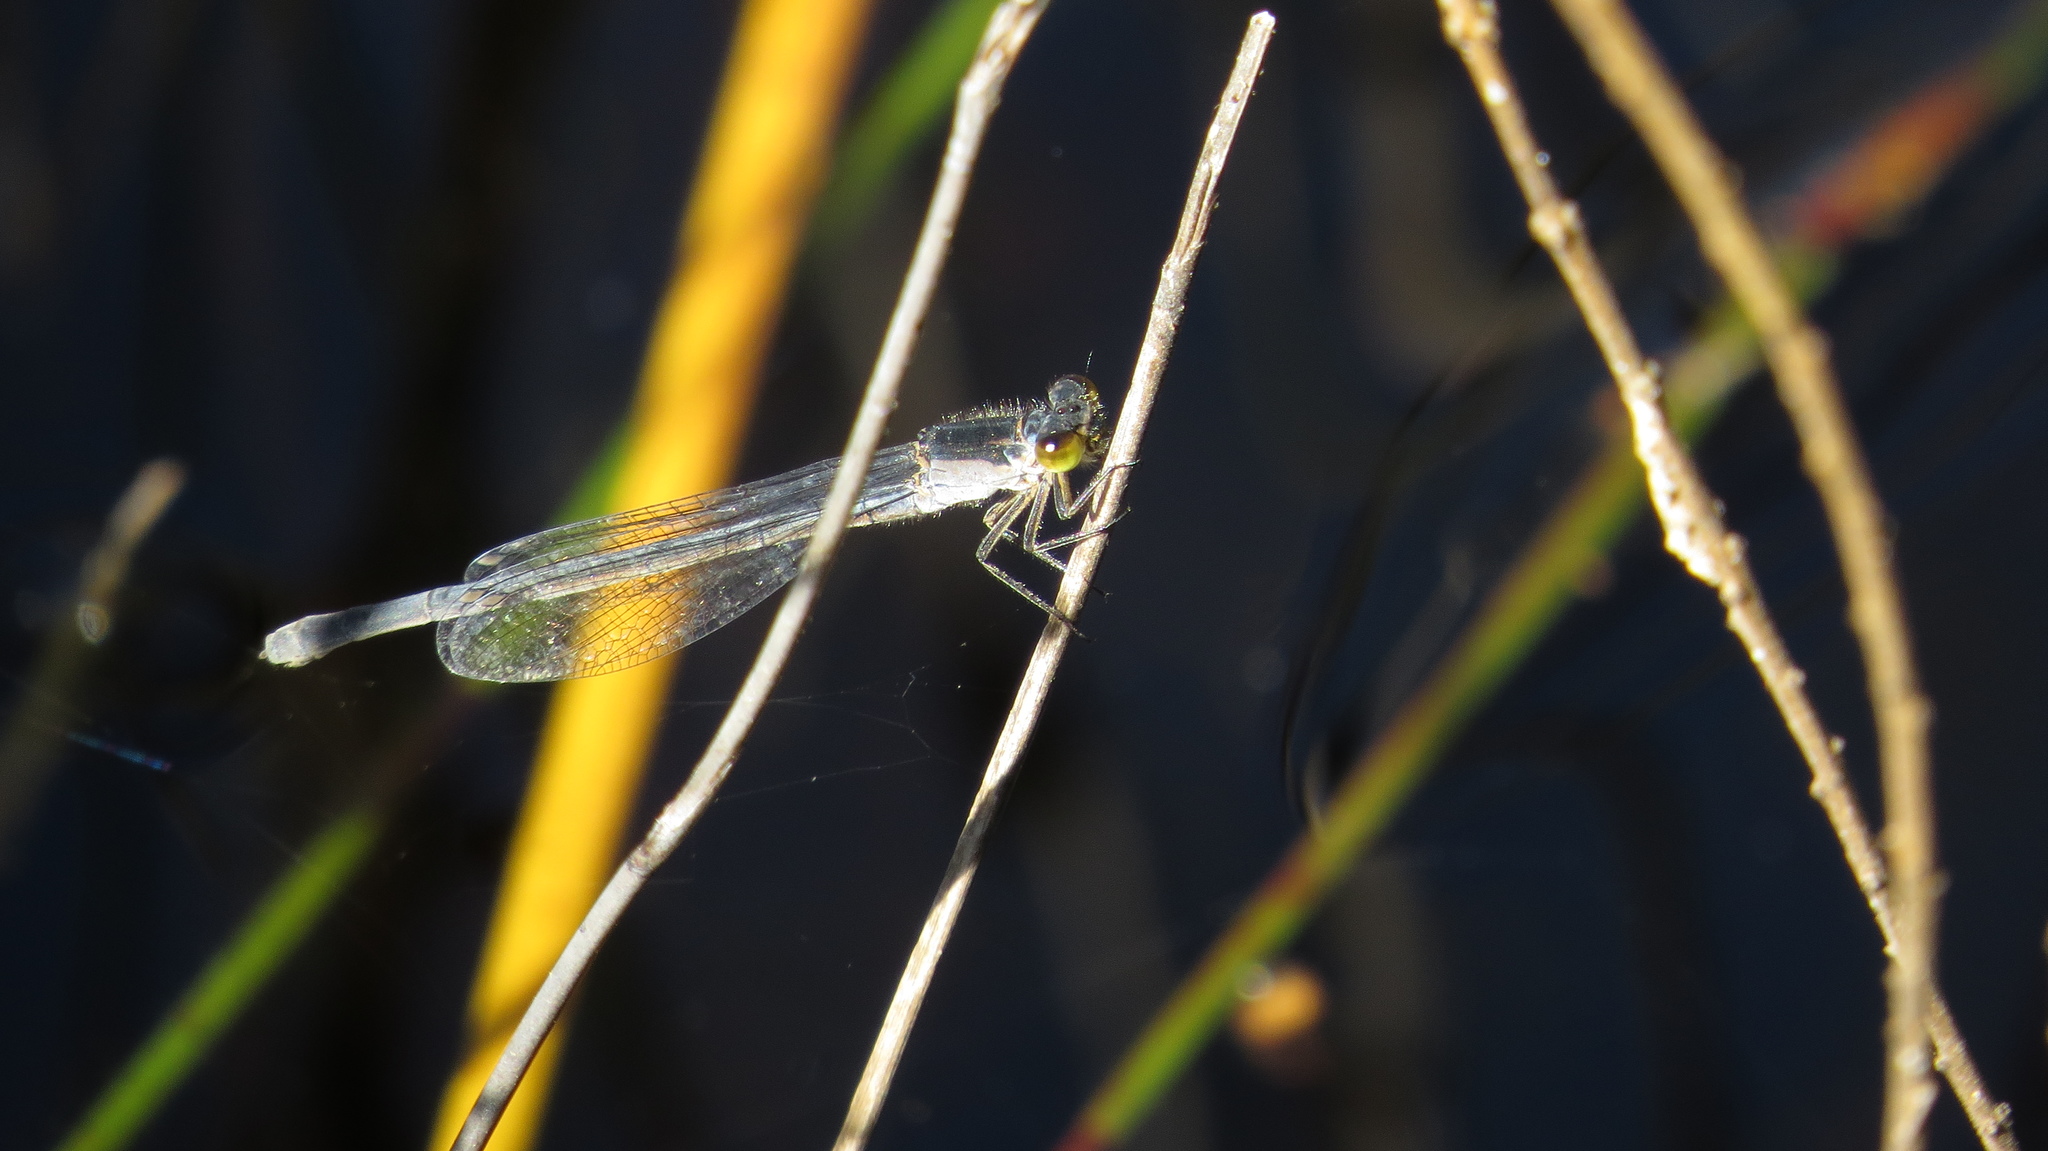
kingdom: Animalia
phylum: Arthropoda
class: Insecta
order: Odonata
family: Coenagrionidae
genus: Ischnura
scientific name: Ischnura heterosticta
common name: Common bluetail
